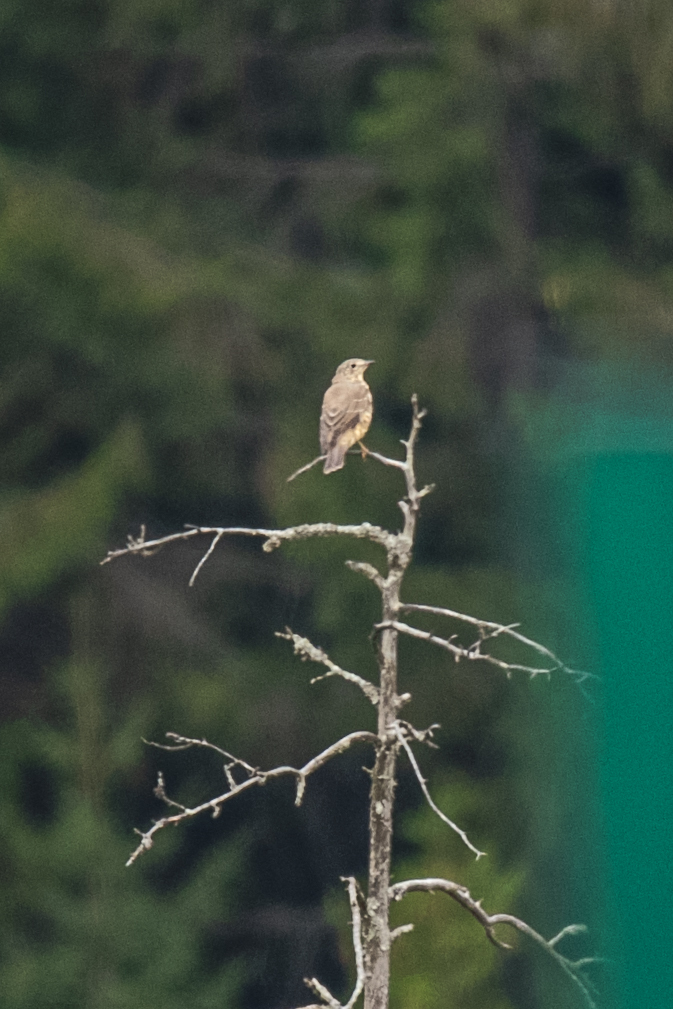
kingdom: Animalia
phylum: Chordata
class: Aves
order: Passeriformes
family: Turdidae
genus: Turdus
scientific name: Turdus viscivorus
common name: Mistle thrush
